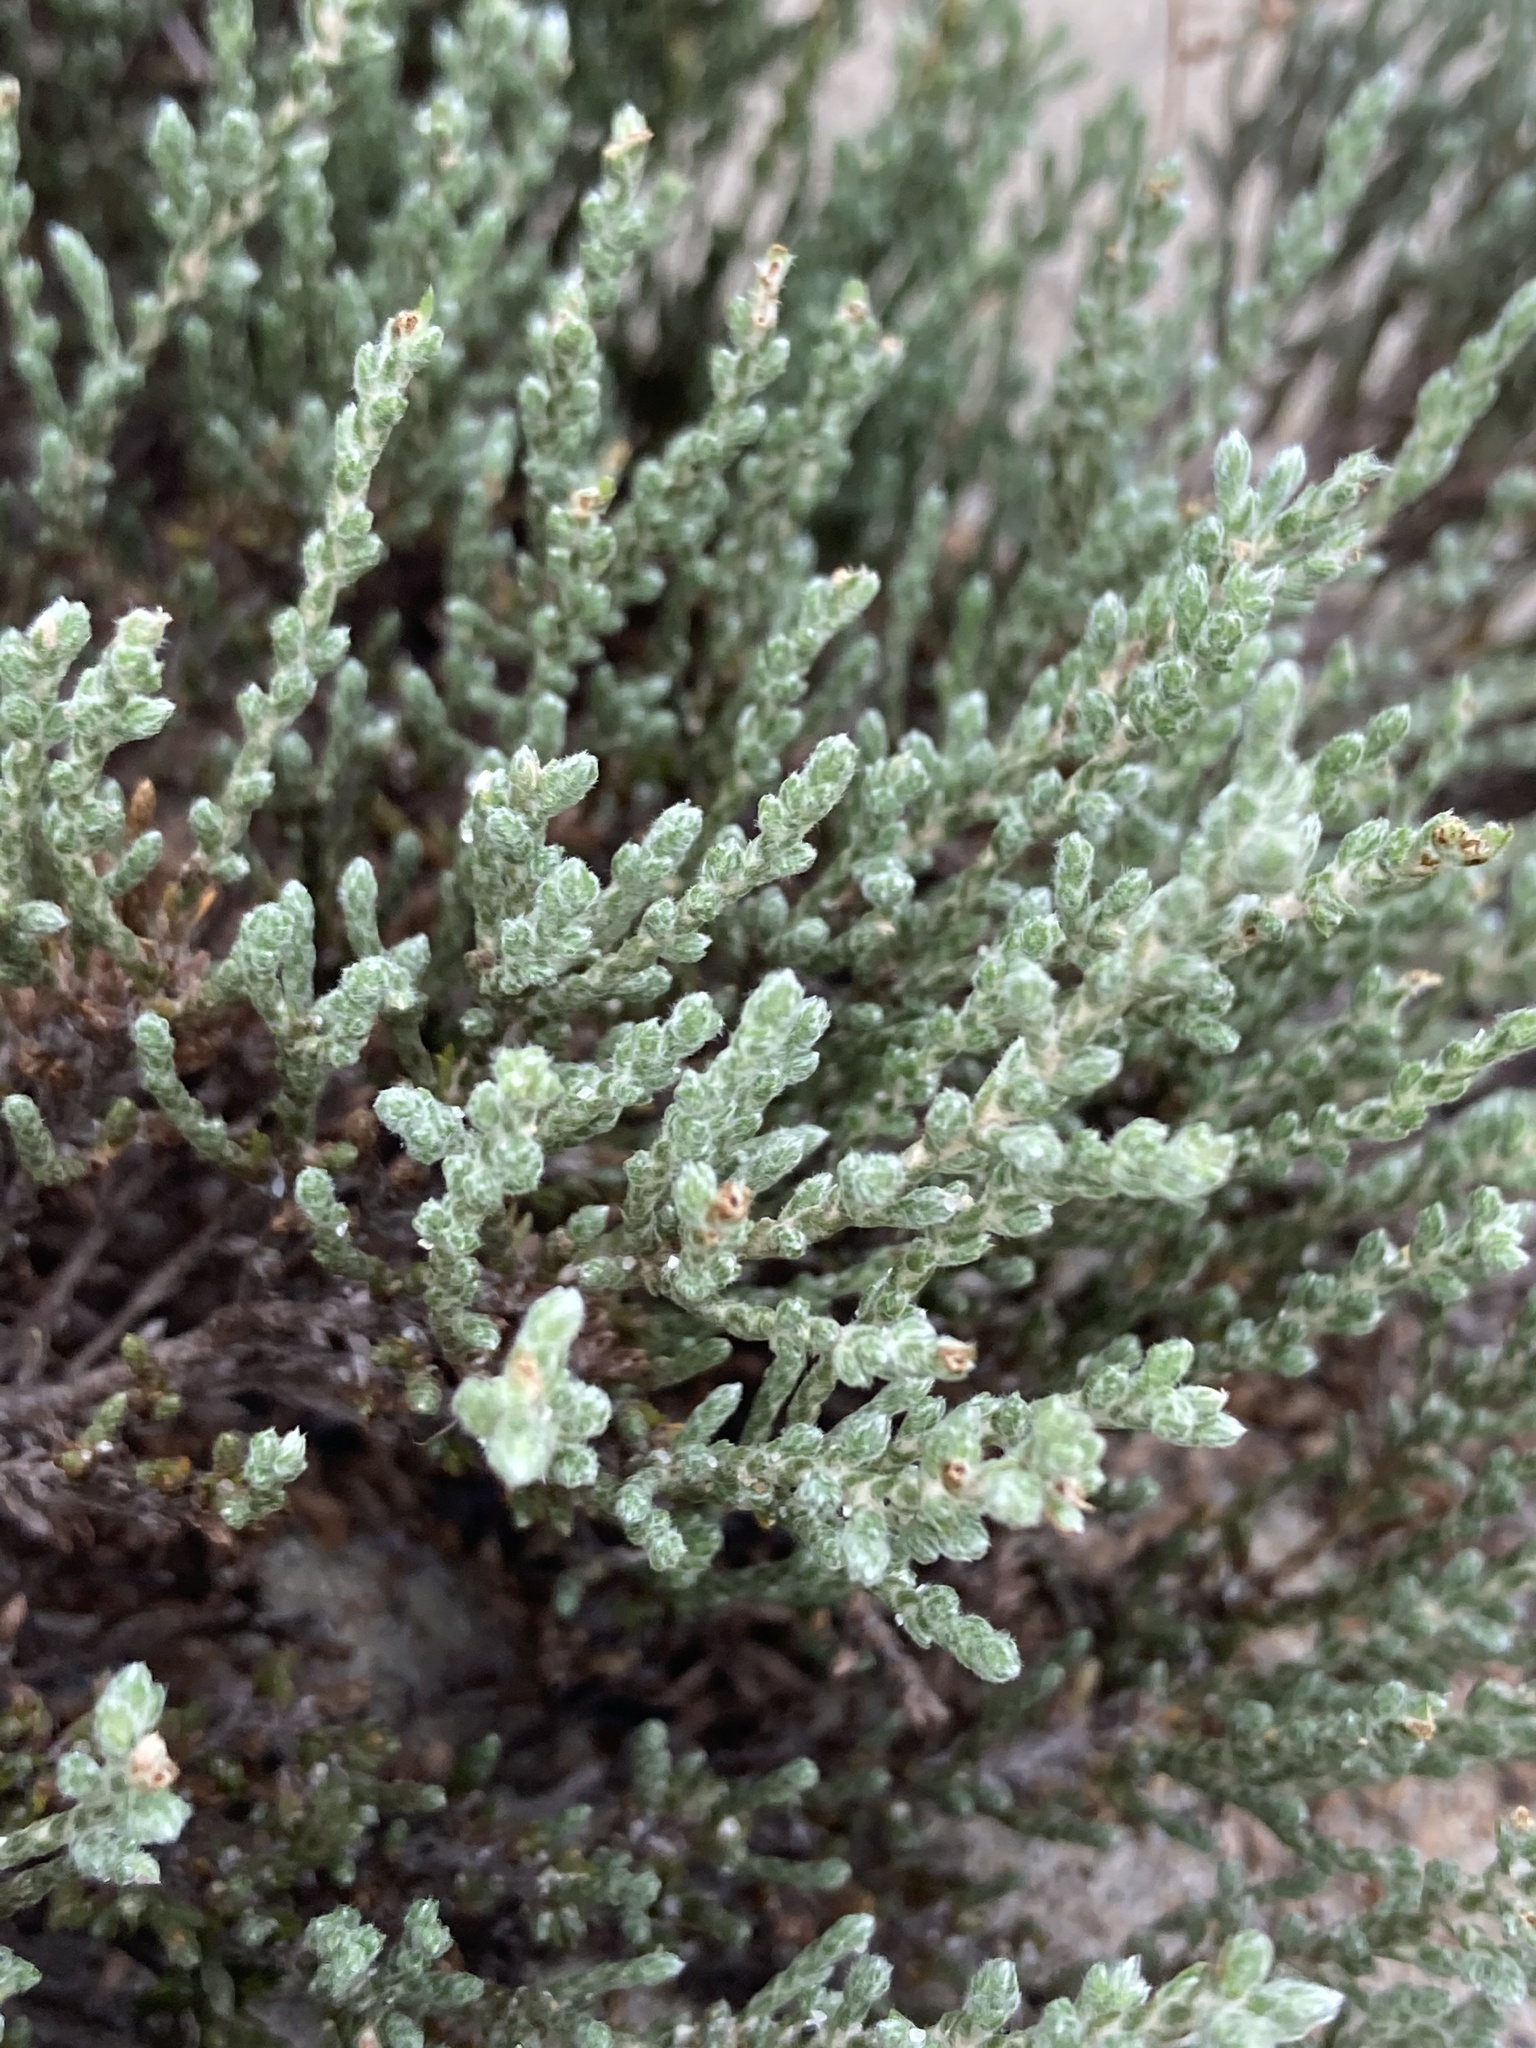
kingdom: Plantae
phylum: Tracheophyta
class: Magnoliopsida
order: Malvales
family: Cistaceae
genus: Hudsonia
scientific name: Hudsonia tomentosa
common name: Beach-heath
